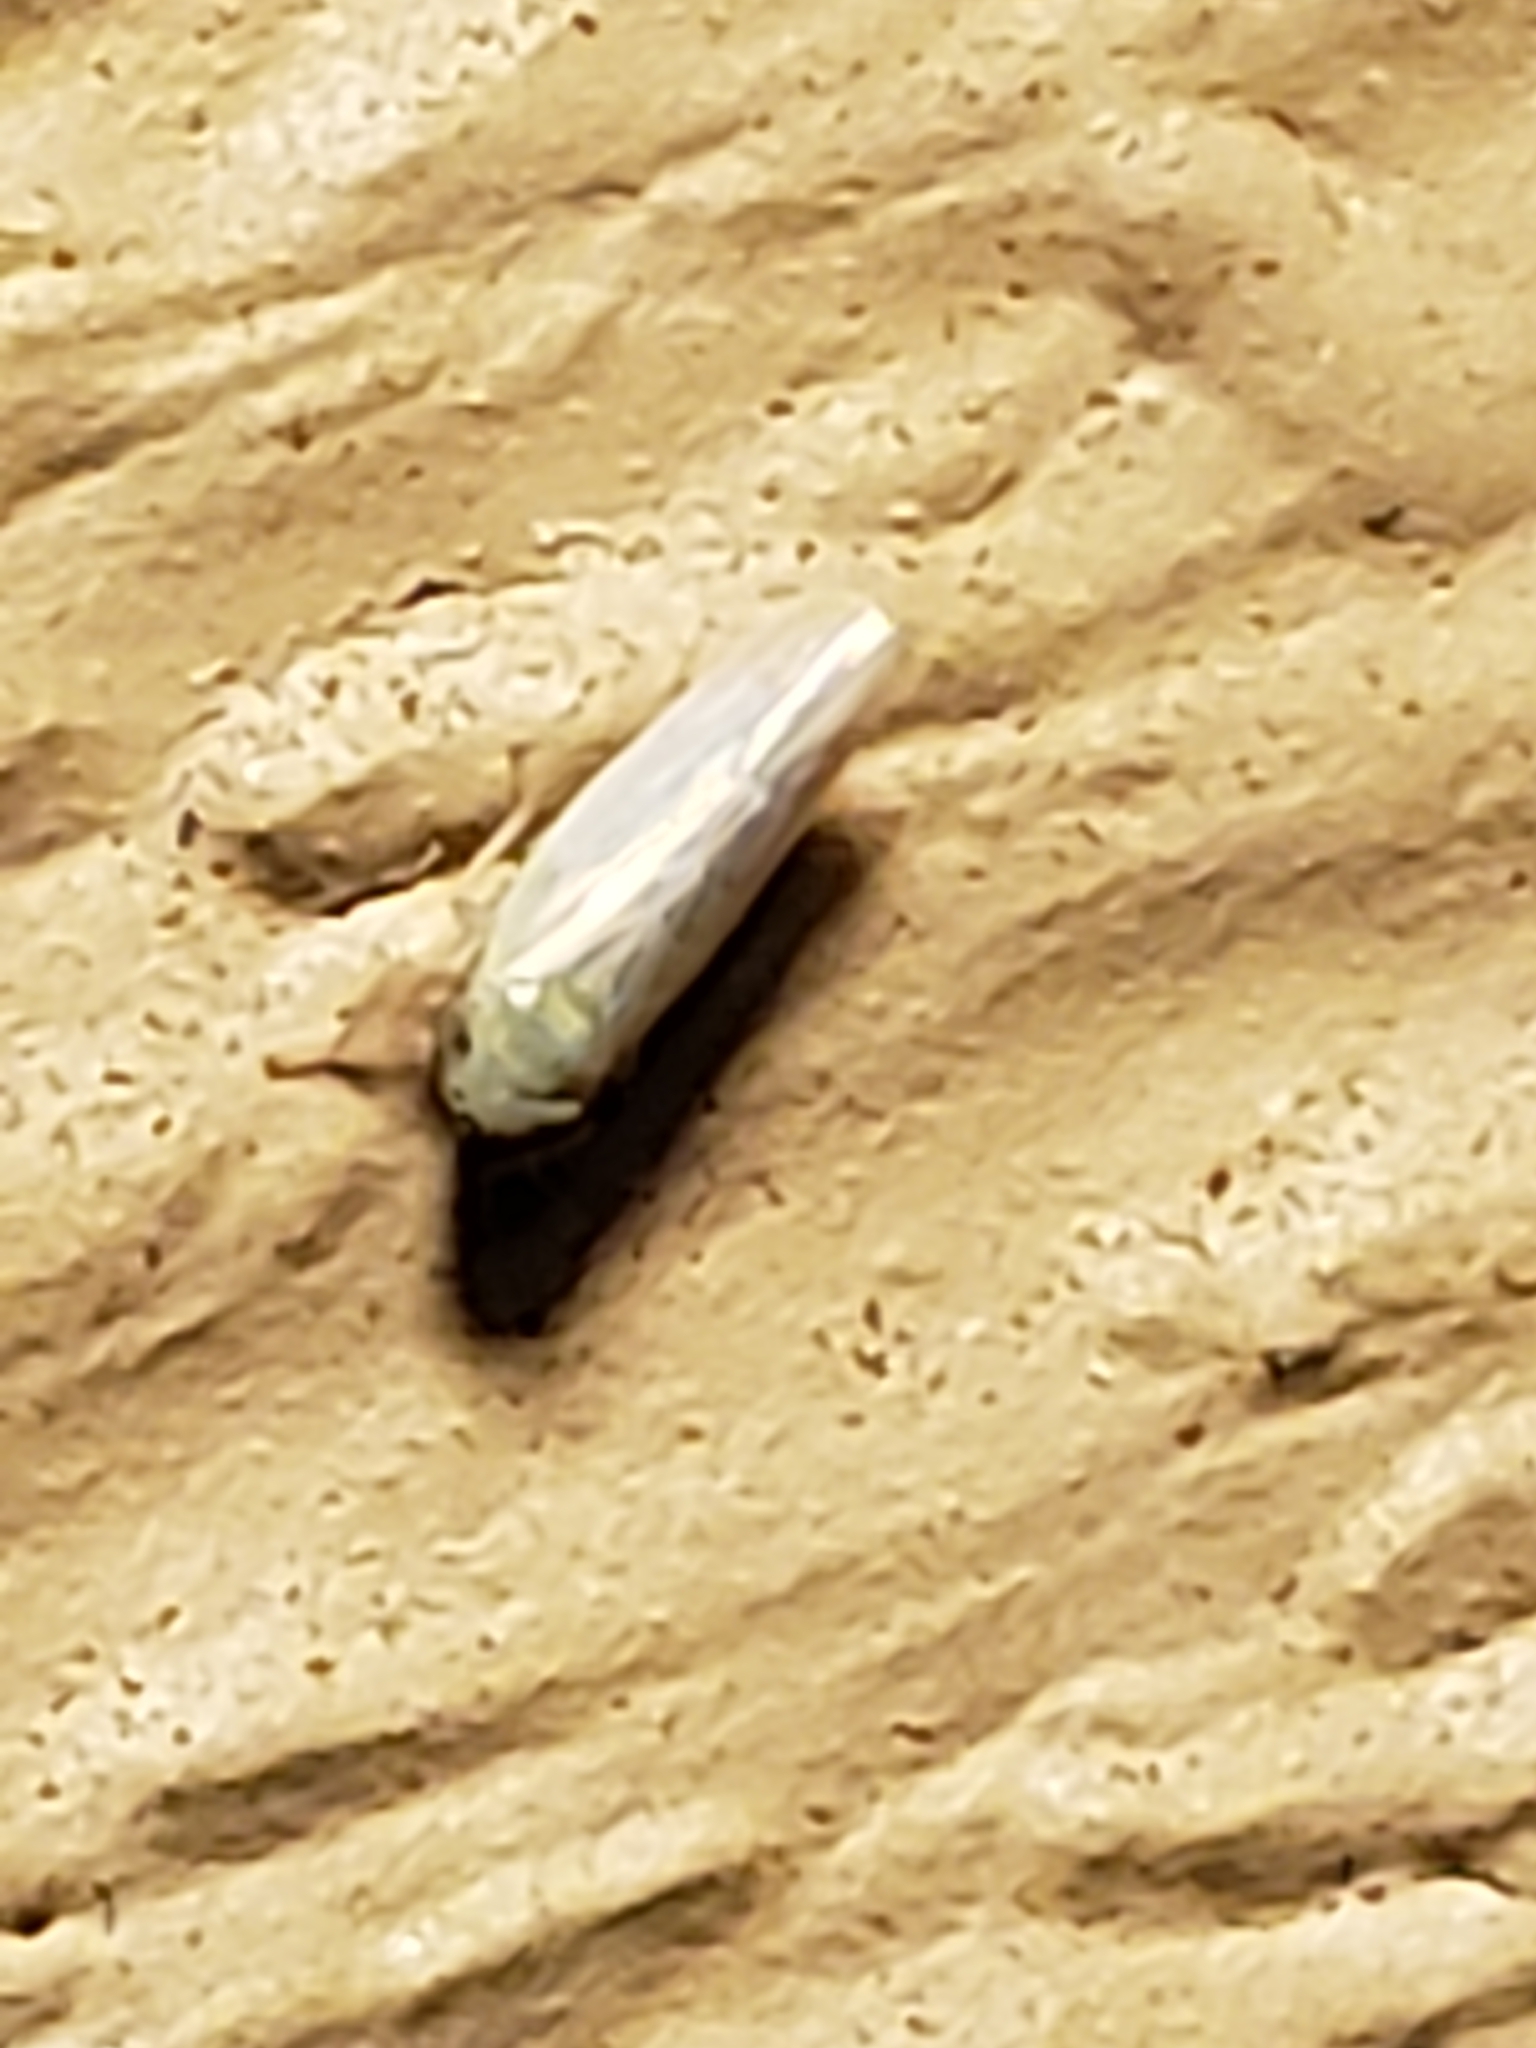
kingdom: Animalia
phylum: Arthropoda
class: Insecta
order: Hemiptera
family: Cicadellidae
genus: Graminella
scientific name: Graminella nigrifrons
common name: Blackfaced leafhopper
